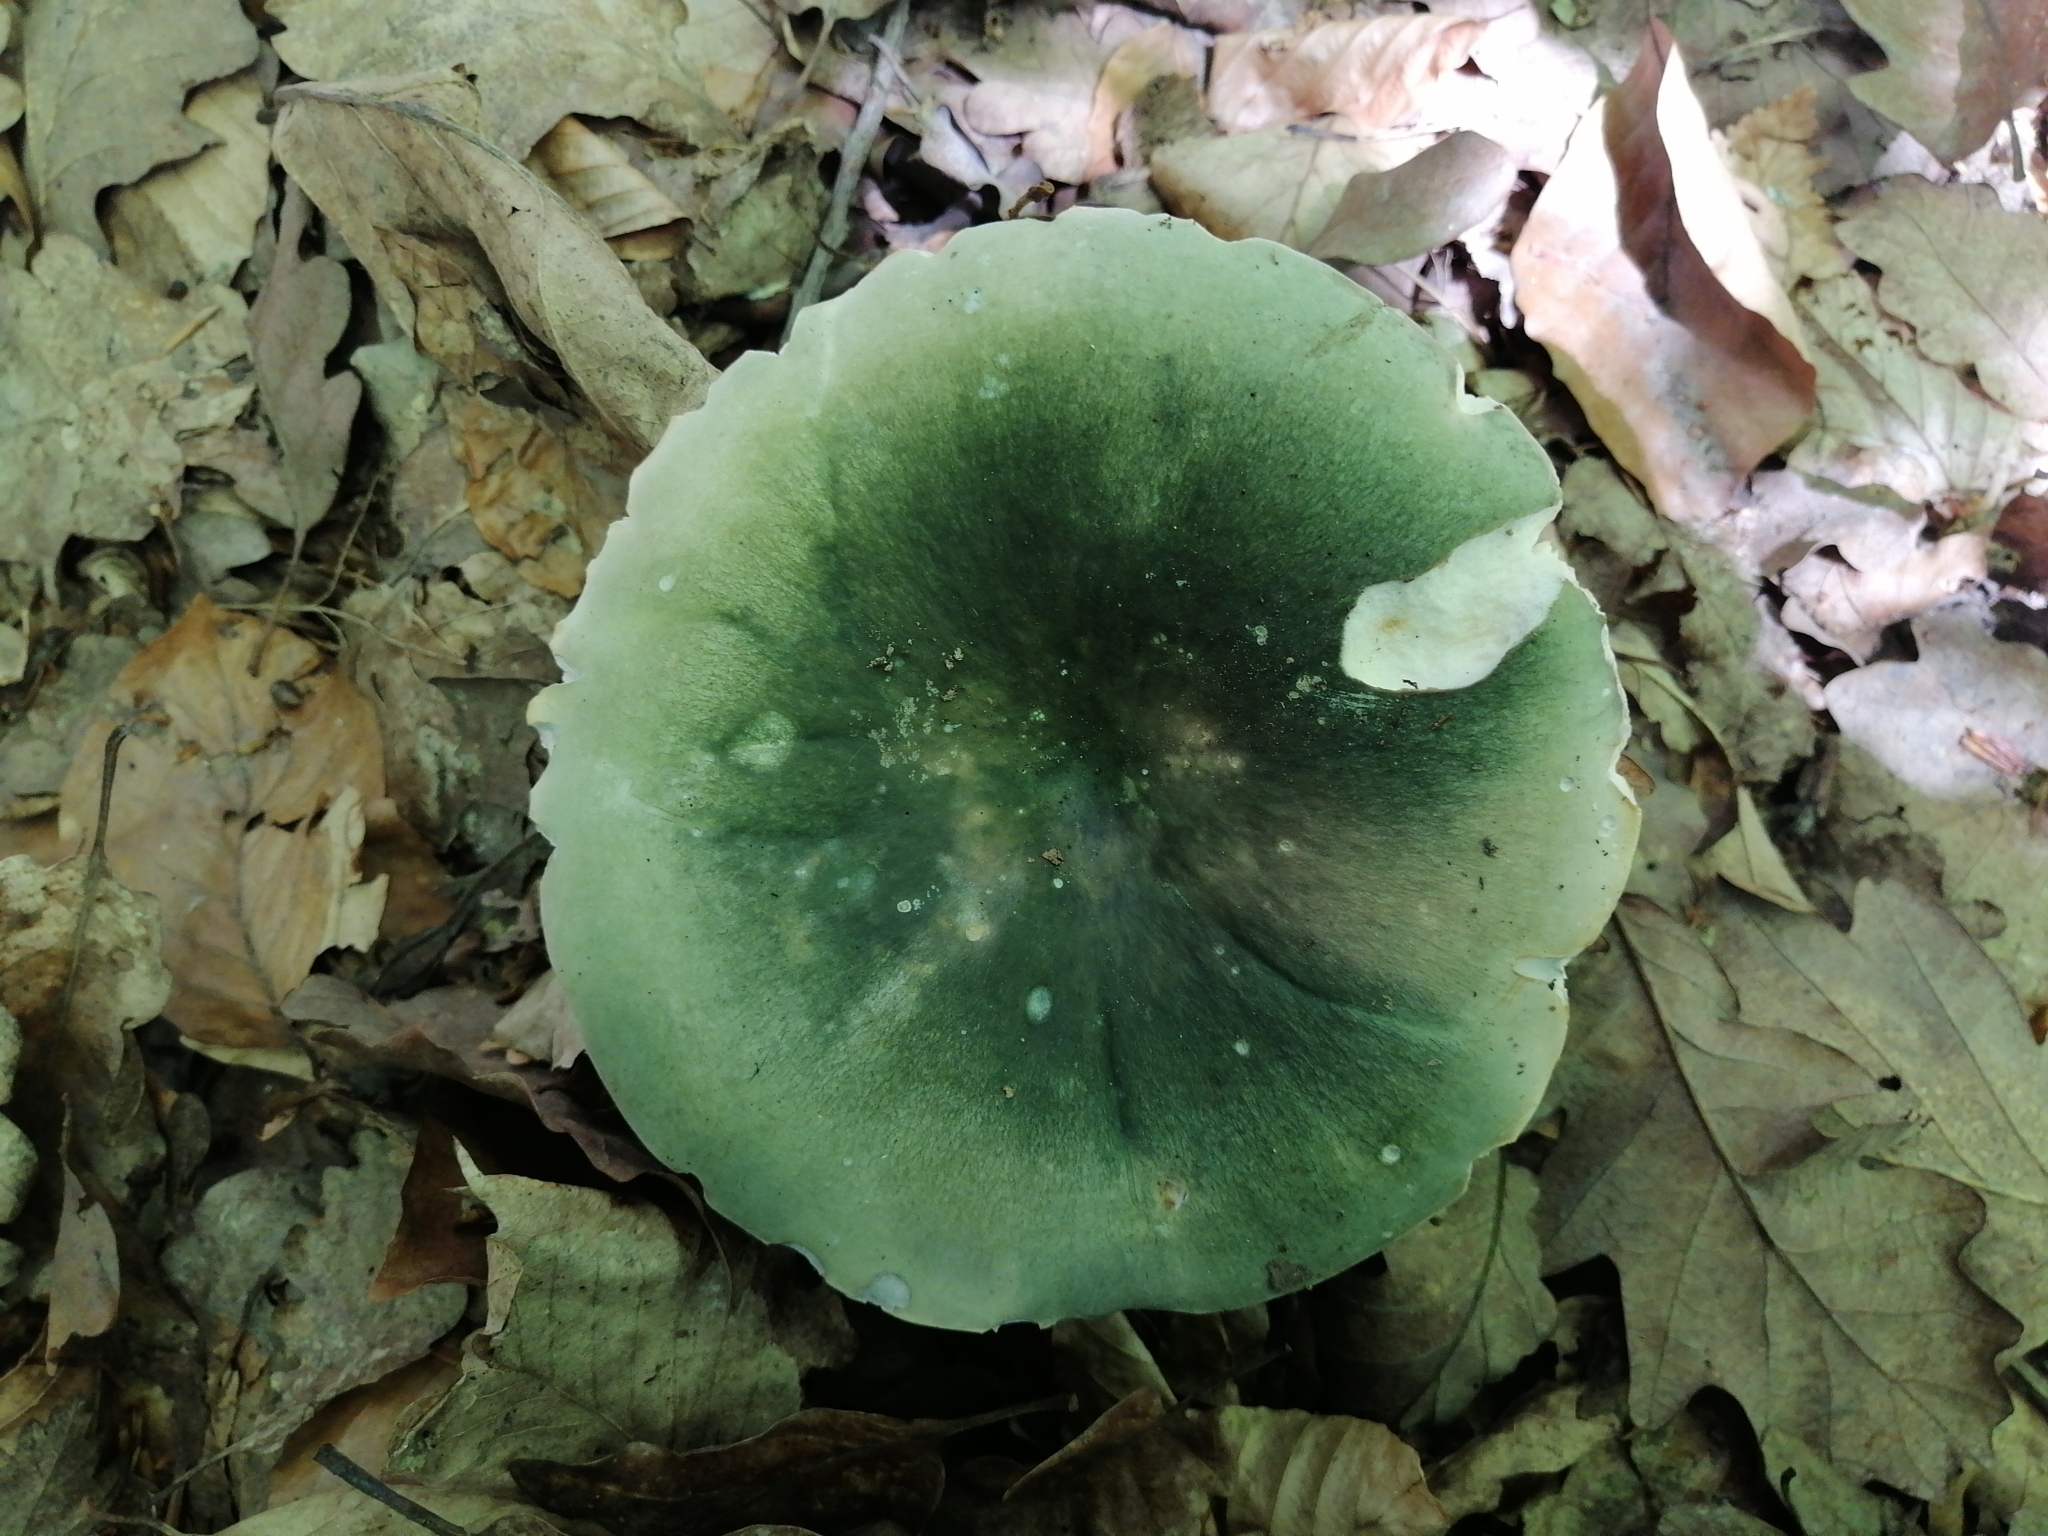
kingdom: Fungi
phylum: Basidiomycota
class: Agaricomycetes
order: Russulales
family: Russulaceae
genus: Russula
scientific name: Russula cyanoxantha
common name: Charcoal burner
